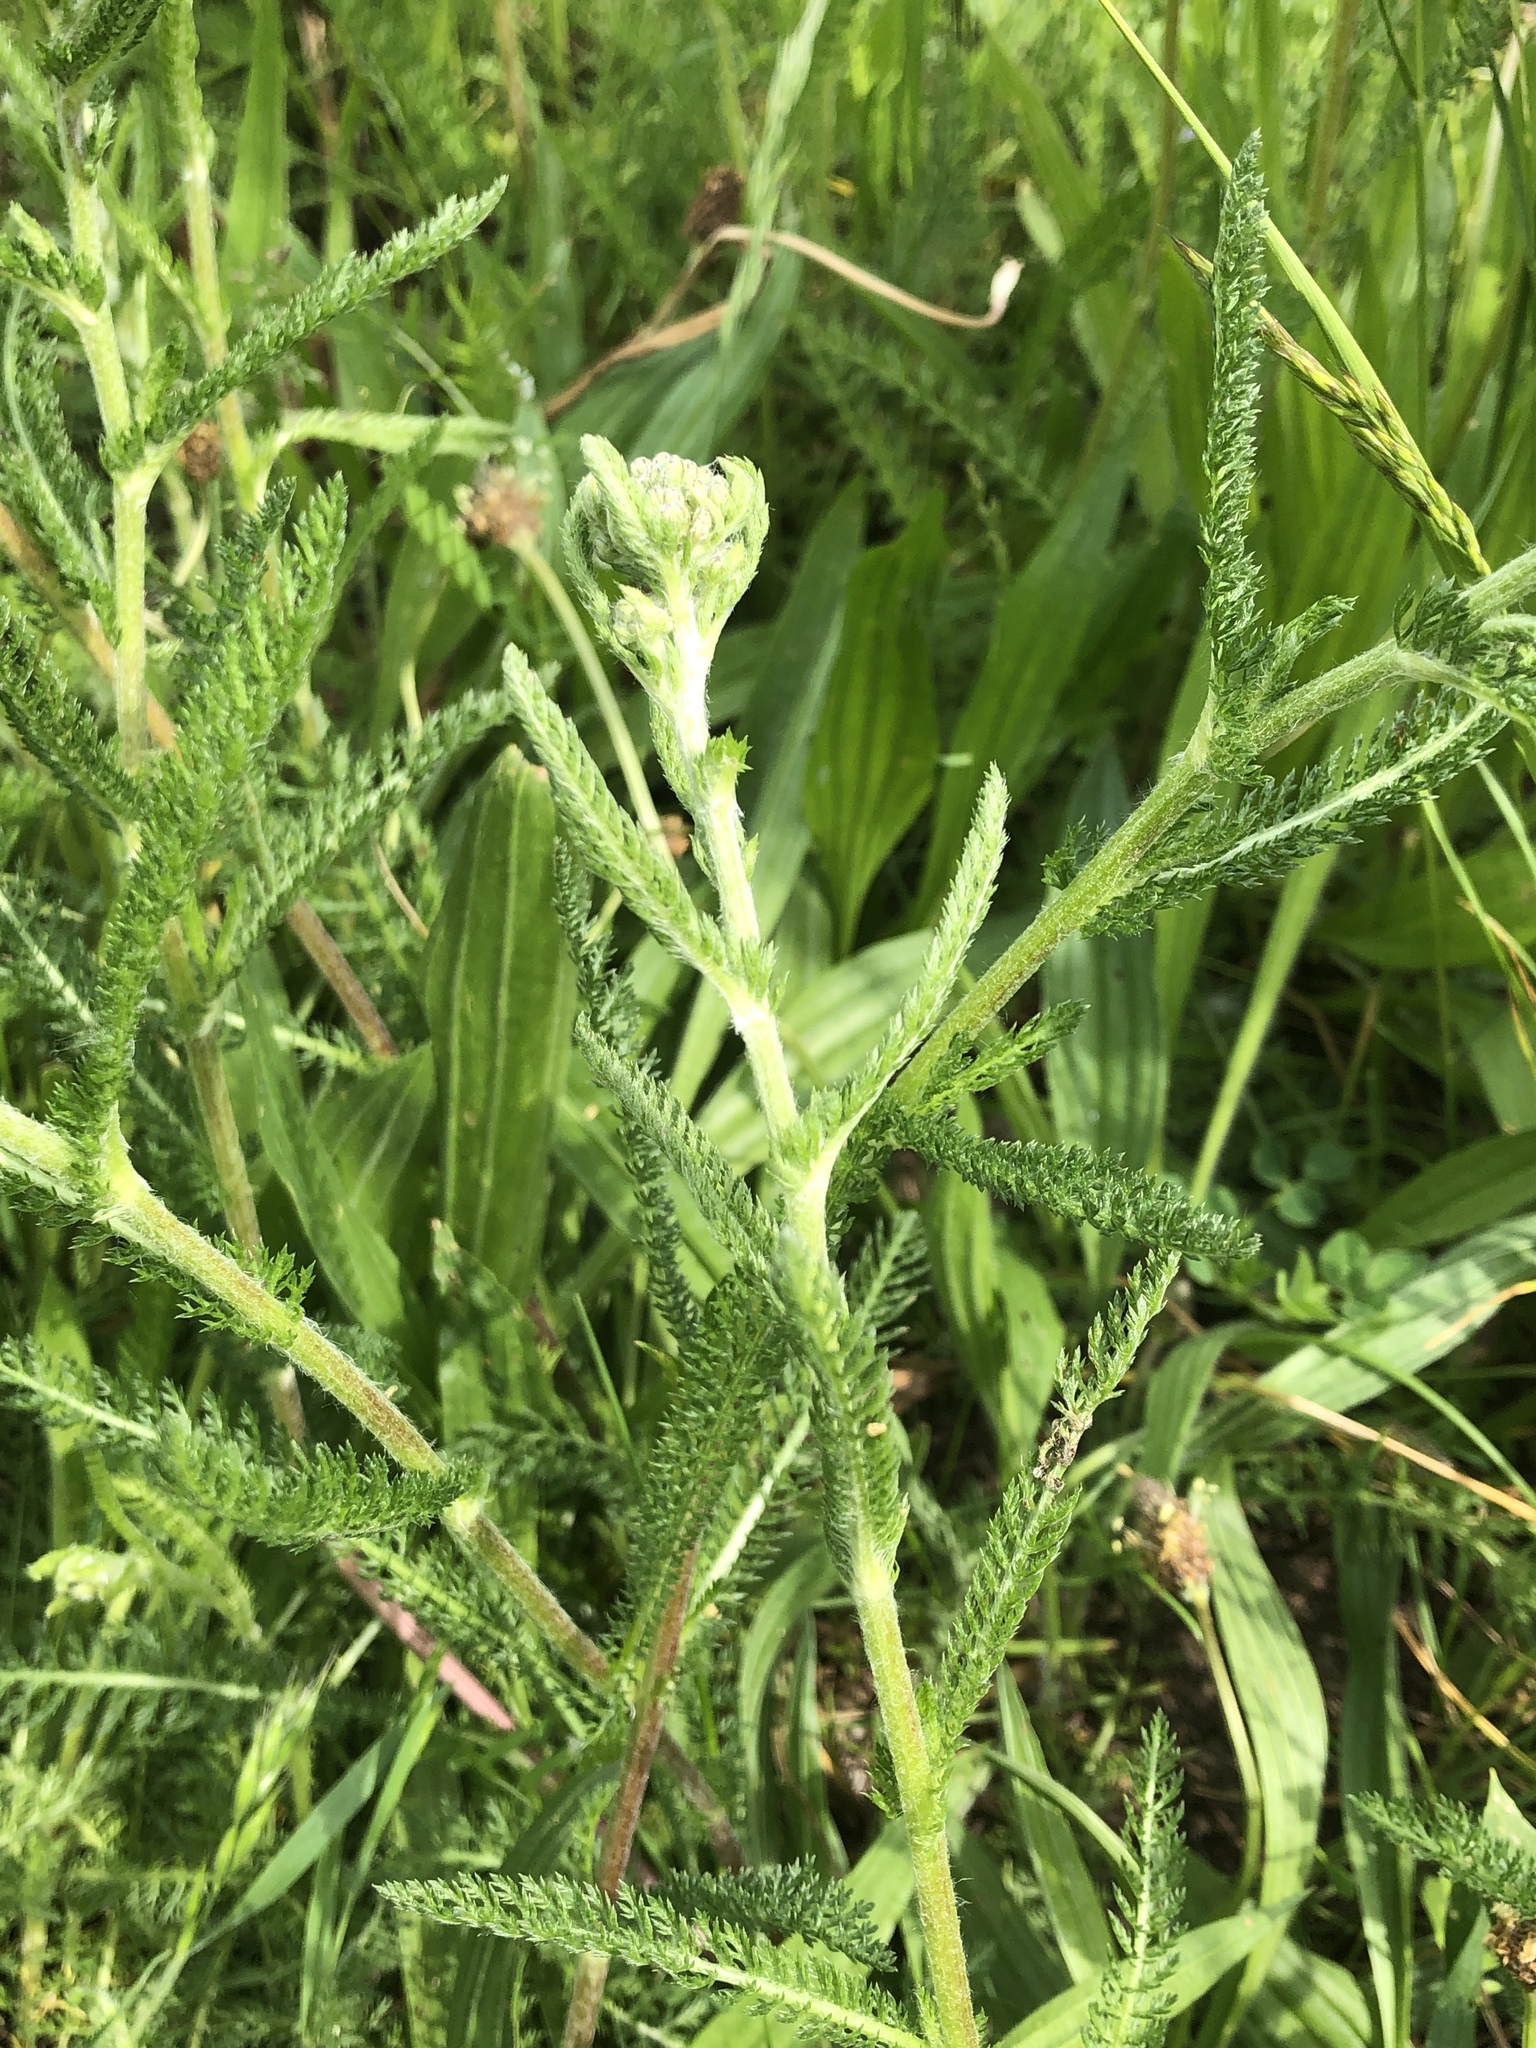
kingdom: Plantae
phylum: Tracheophyta
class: Magnoliopsida
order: Asterales
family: Asteraceae
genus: Achillea
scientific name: Achillea millefolium
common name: Yarrow
